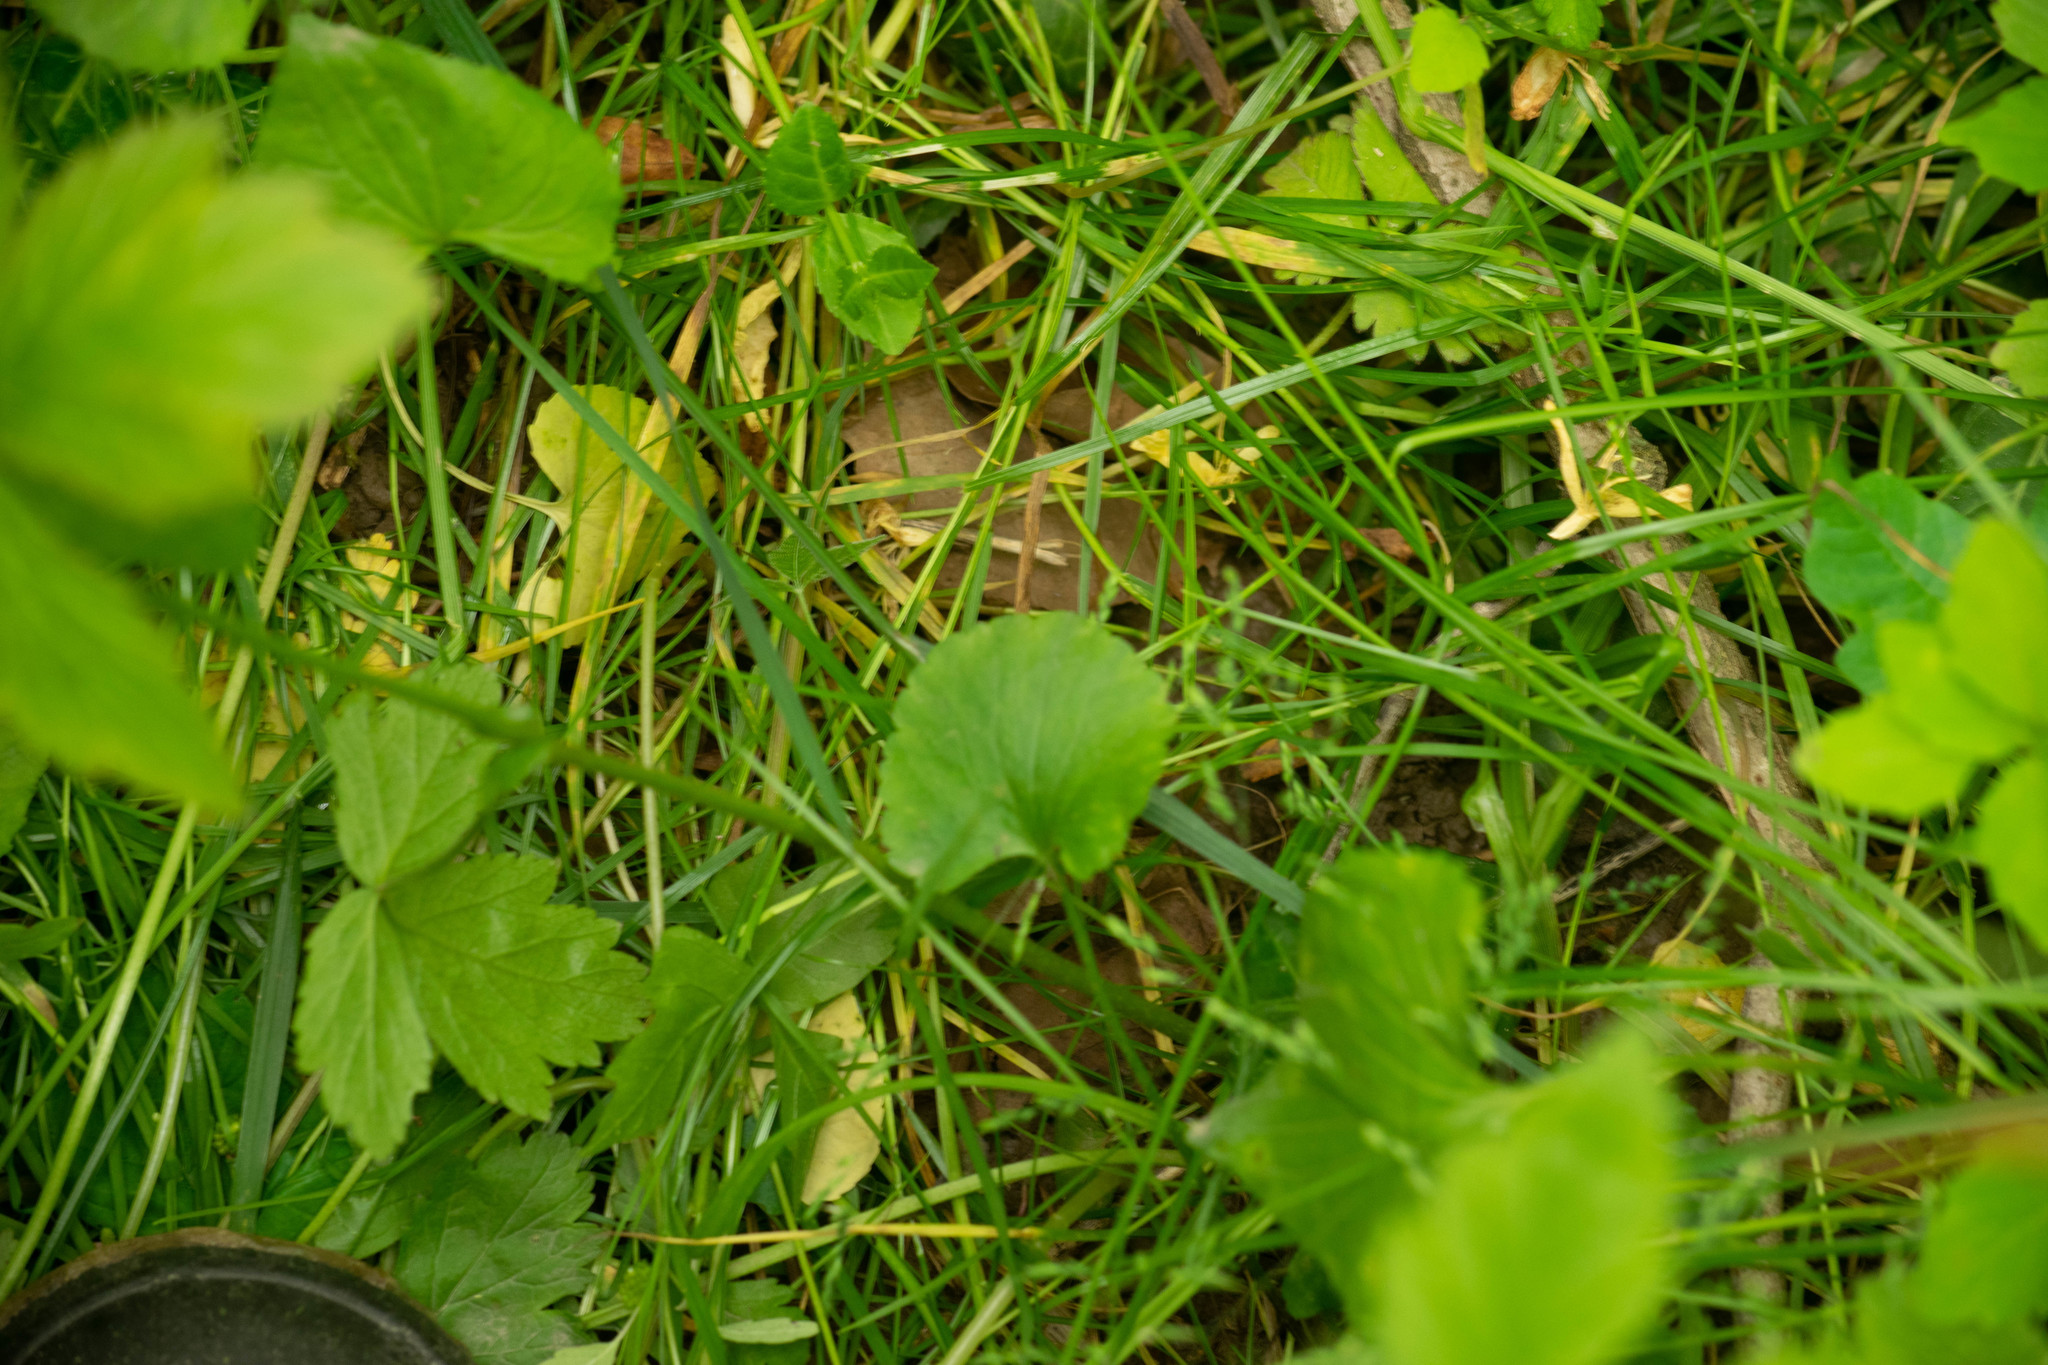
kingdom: Plantae
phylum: Tracheophyta
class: Magnoliopsida
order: Ranunculales
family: Ranunculaceae
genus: Ranunculus
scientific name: Ranunculus abortivus
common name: Early wood buttercup
